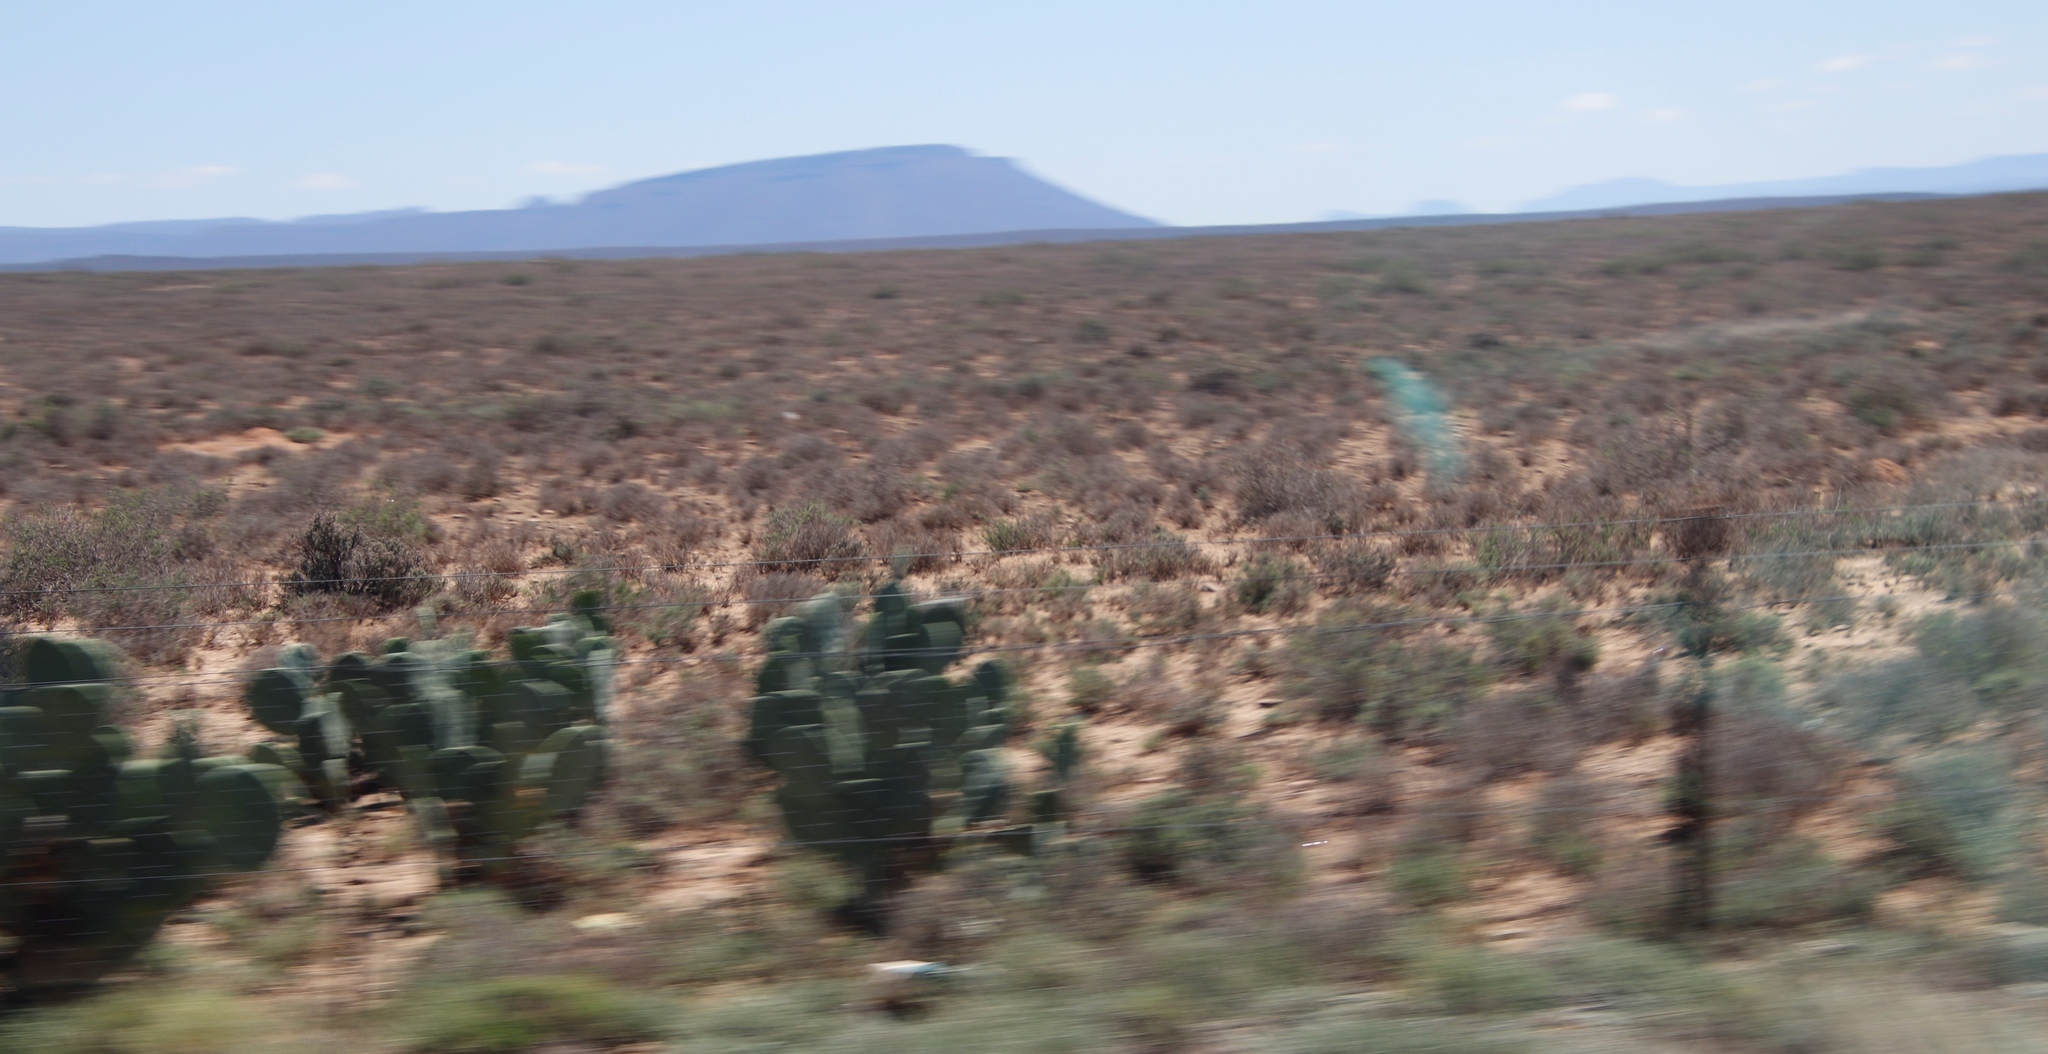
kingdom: Plantae
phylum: Tracheophyta
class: Magnoliopsida
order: Caryophyllales
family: Cactaceae
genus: Opuntia
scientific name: Opuntia ficus-indica
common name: Barbary fig
